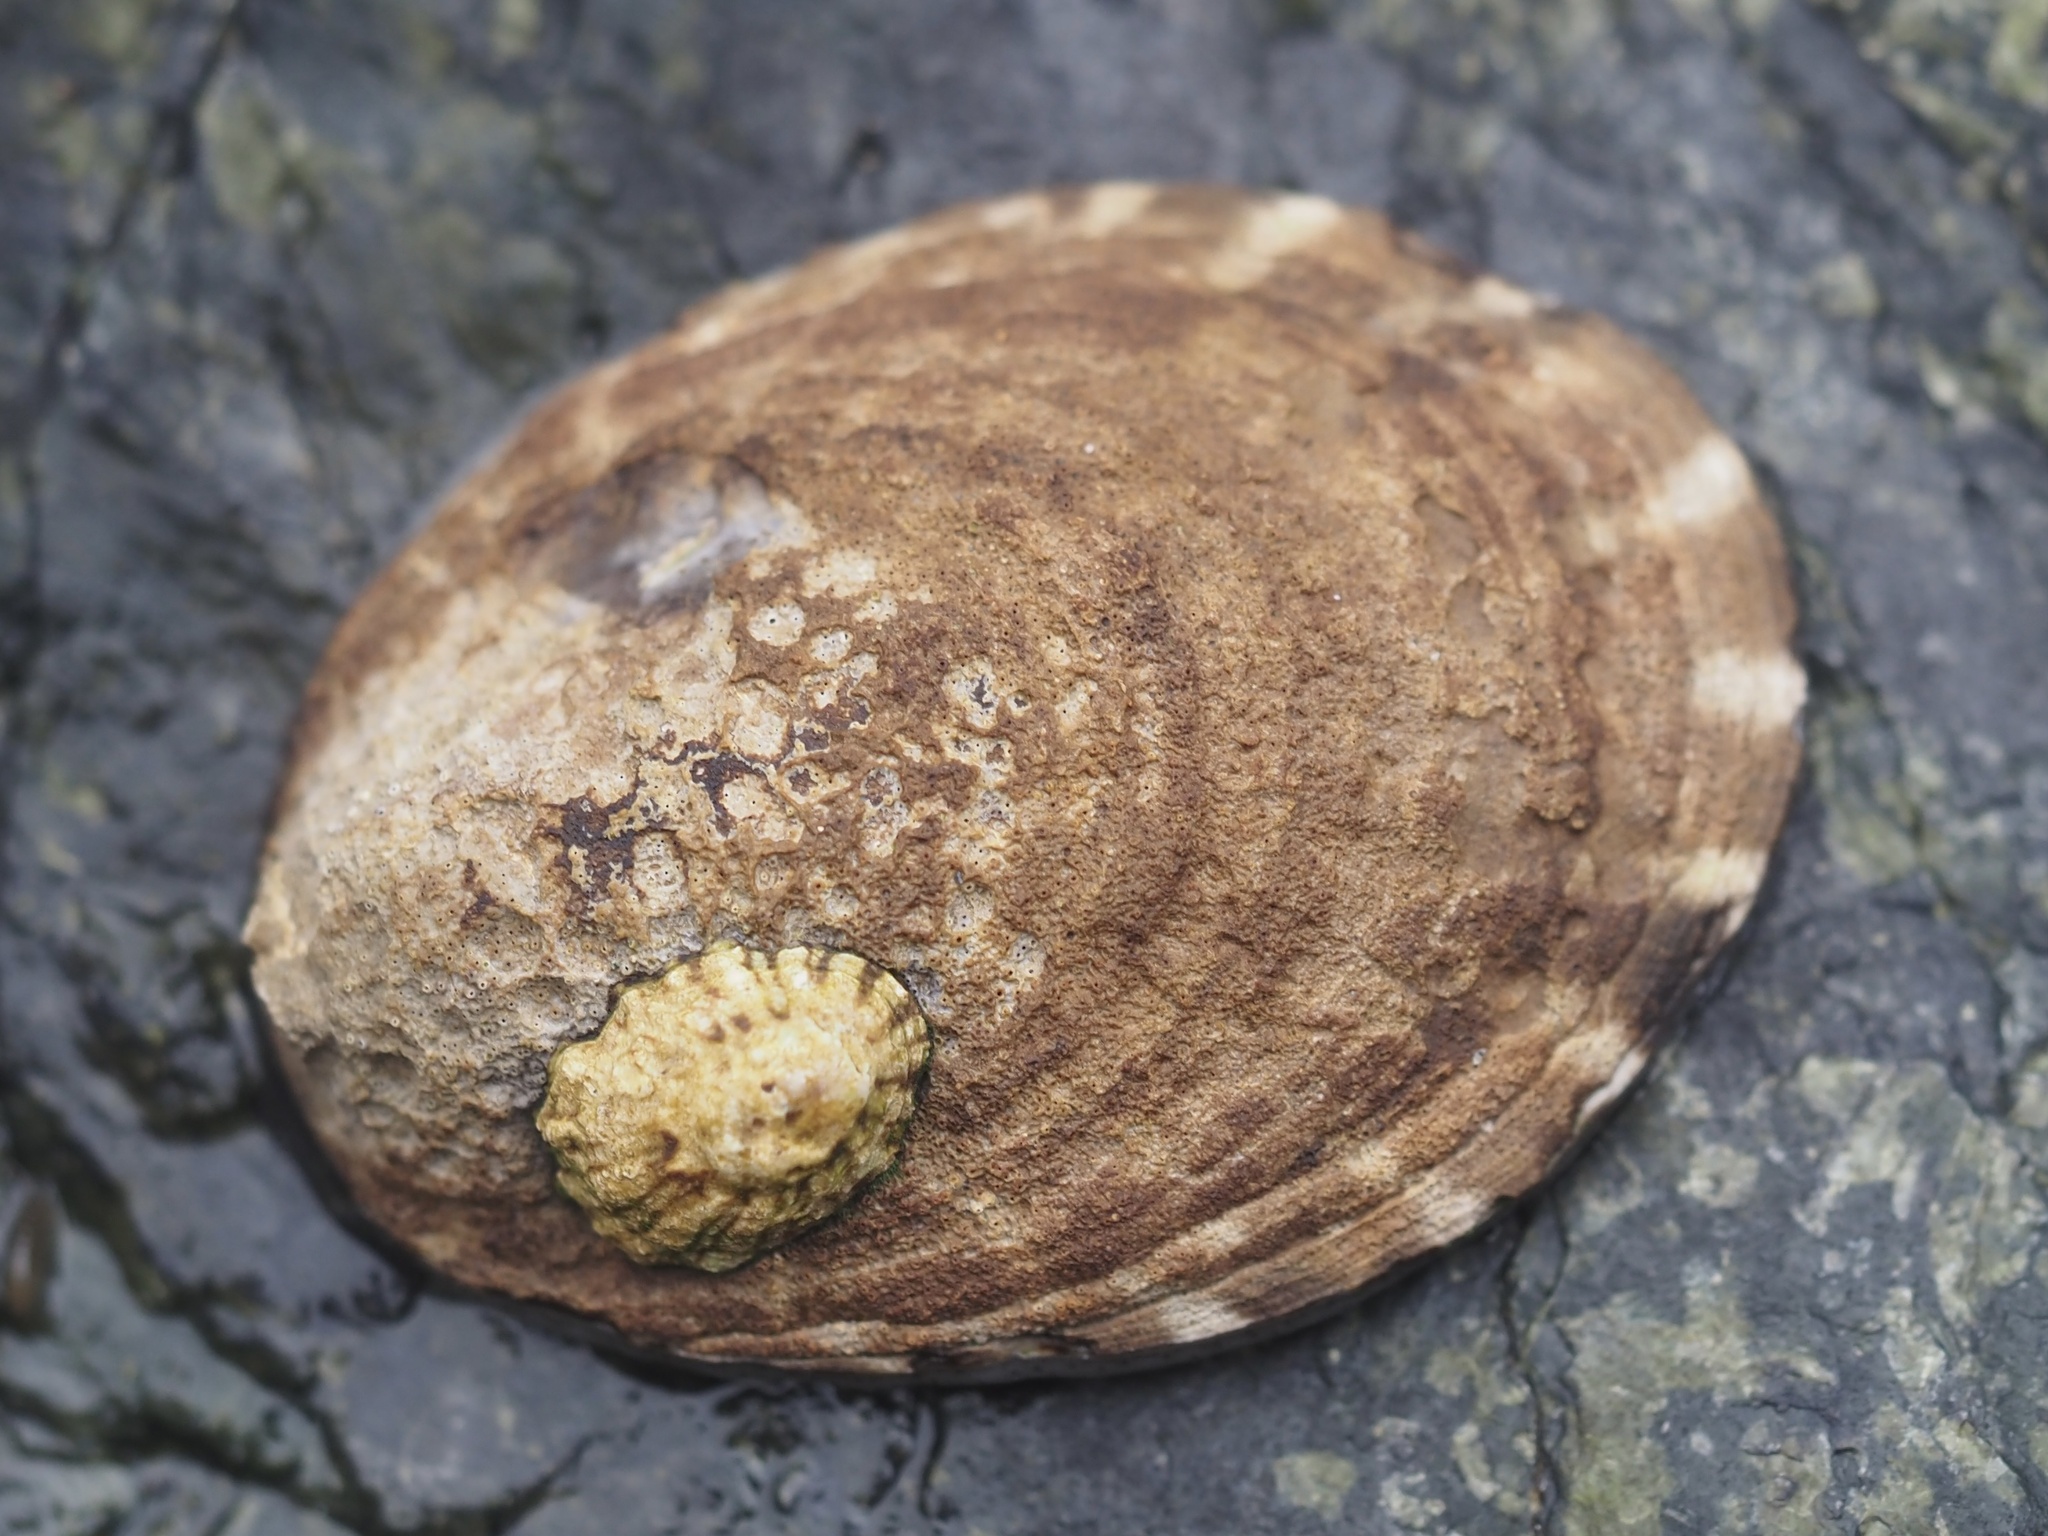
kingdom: Animalia
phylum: Mollusca
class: Gastropoda
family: Lottiidae
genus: Lottia
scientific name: Lottia gigantea
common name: Owl limpet
